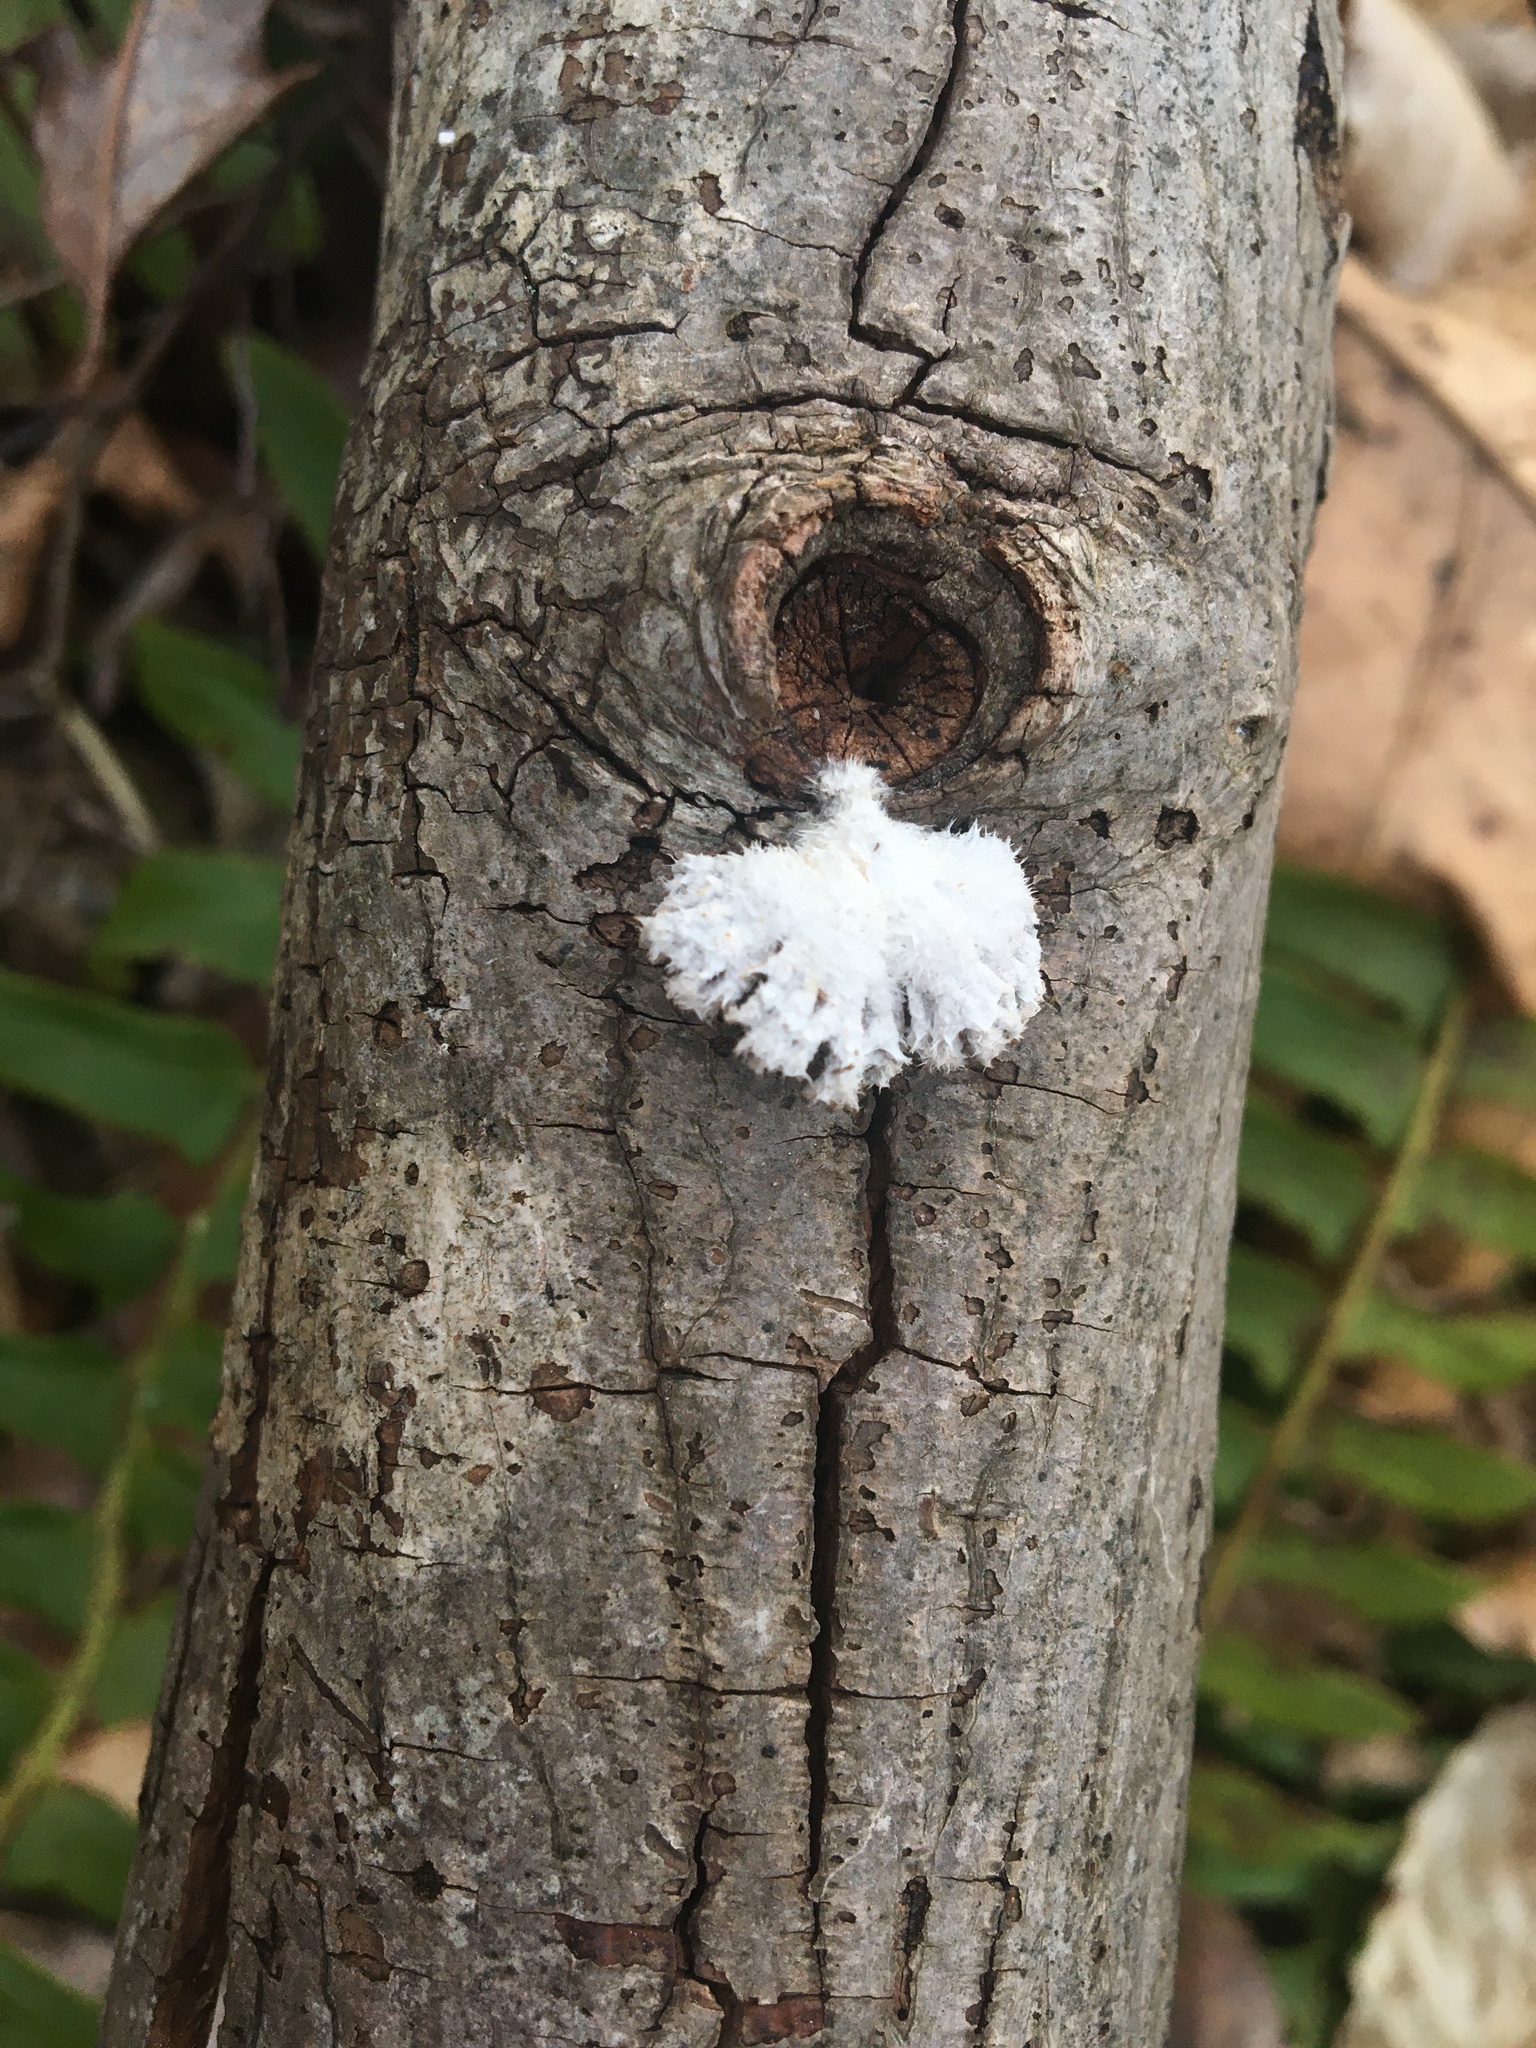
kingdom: Fungi
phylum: Basidiomycota
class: Agaricomycetes
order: Agaricales
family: Schizophyllaceae
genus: Schizophyllum
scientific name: Schizophyllum commune
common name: Common porecrust
